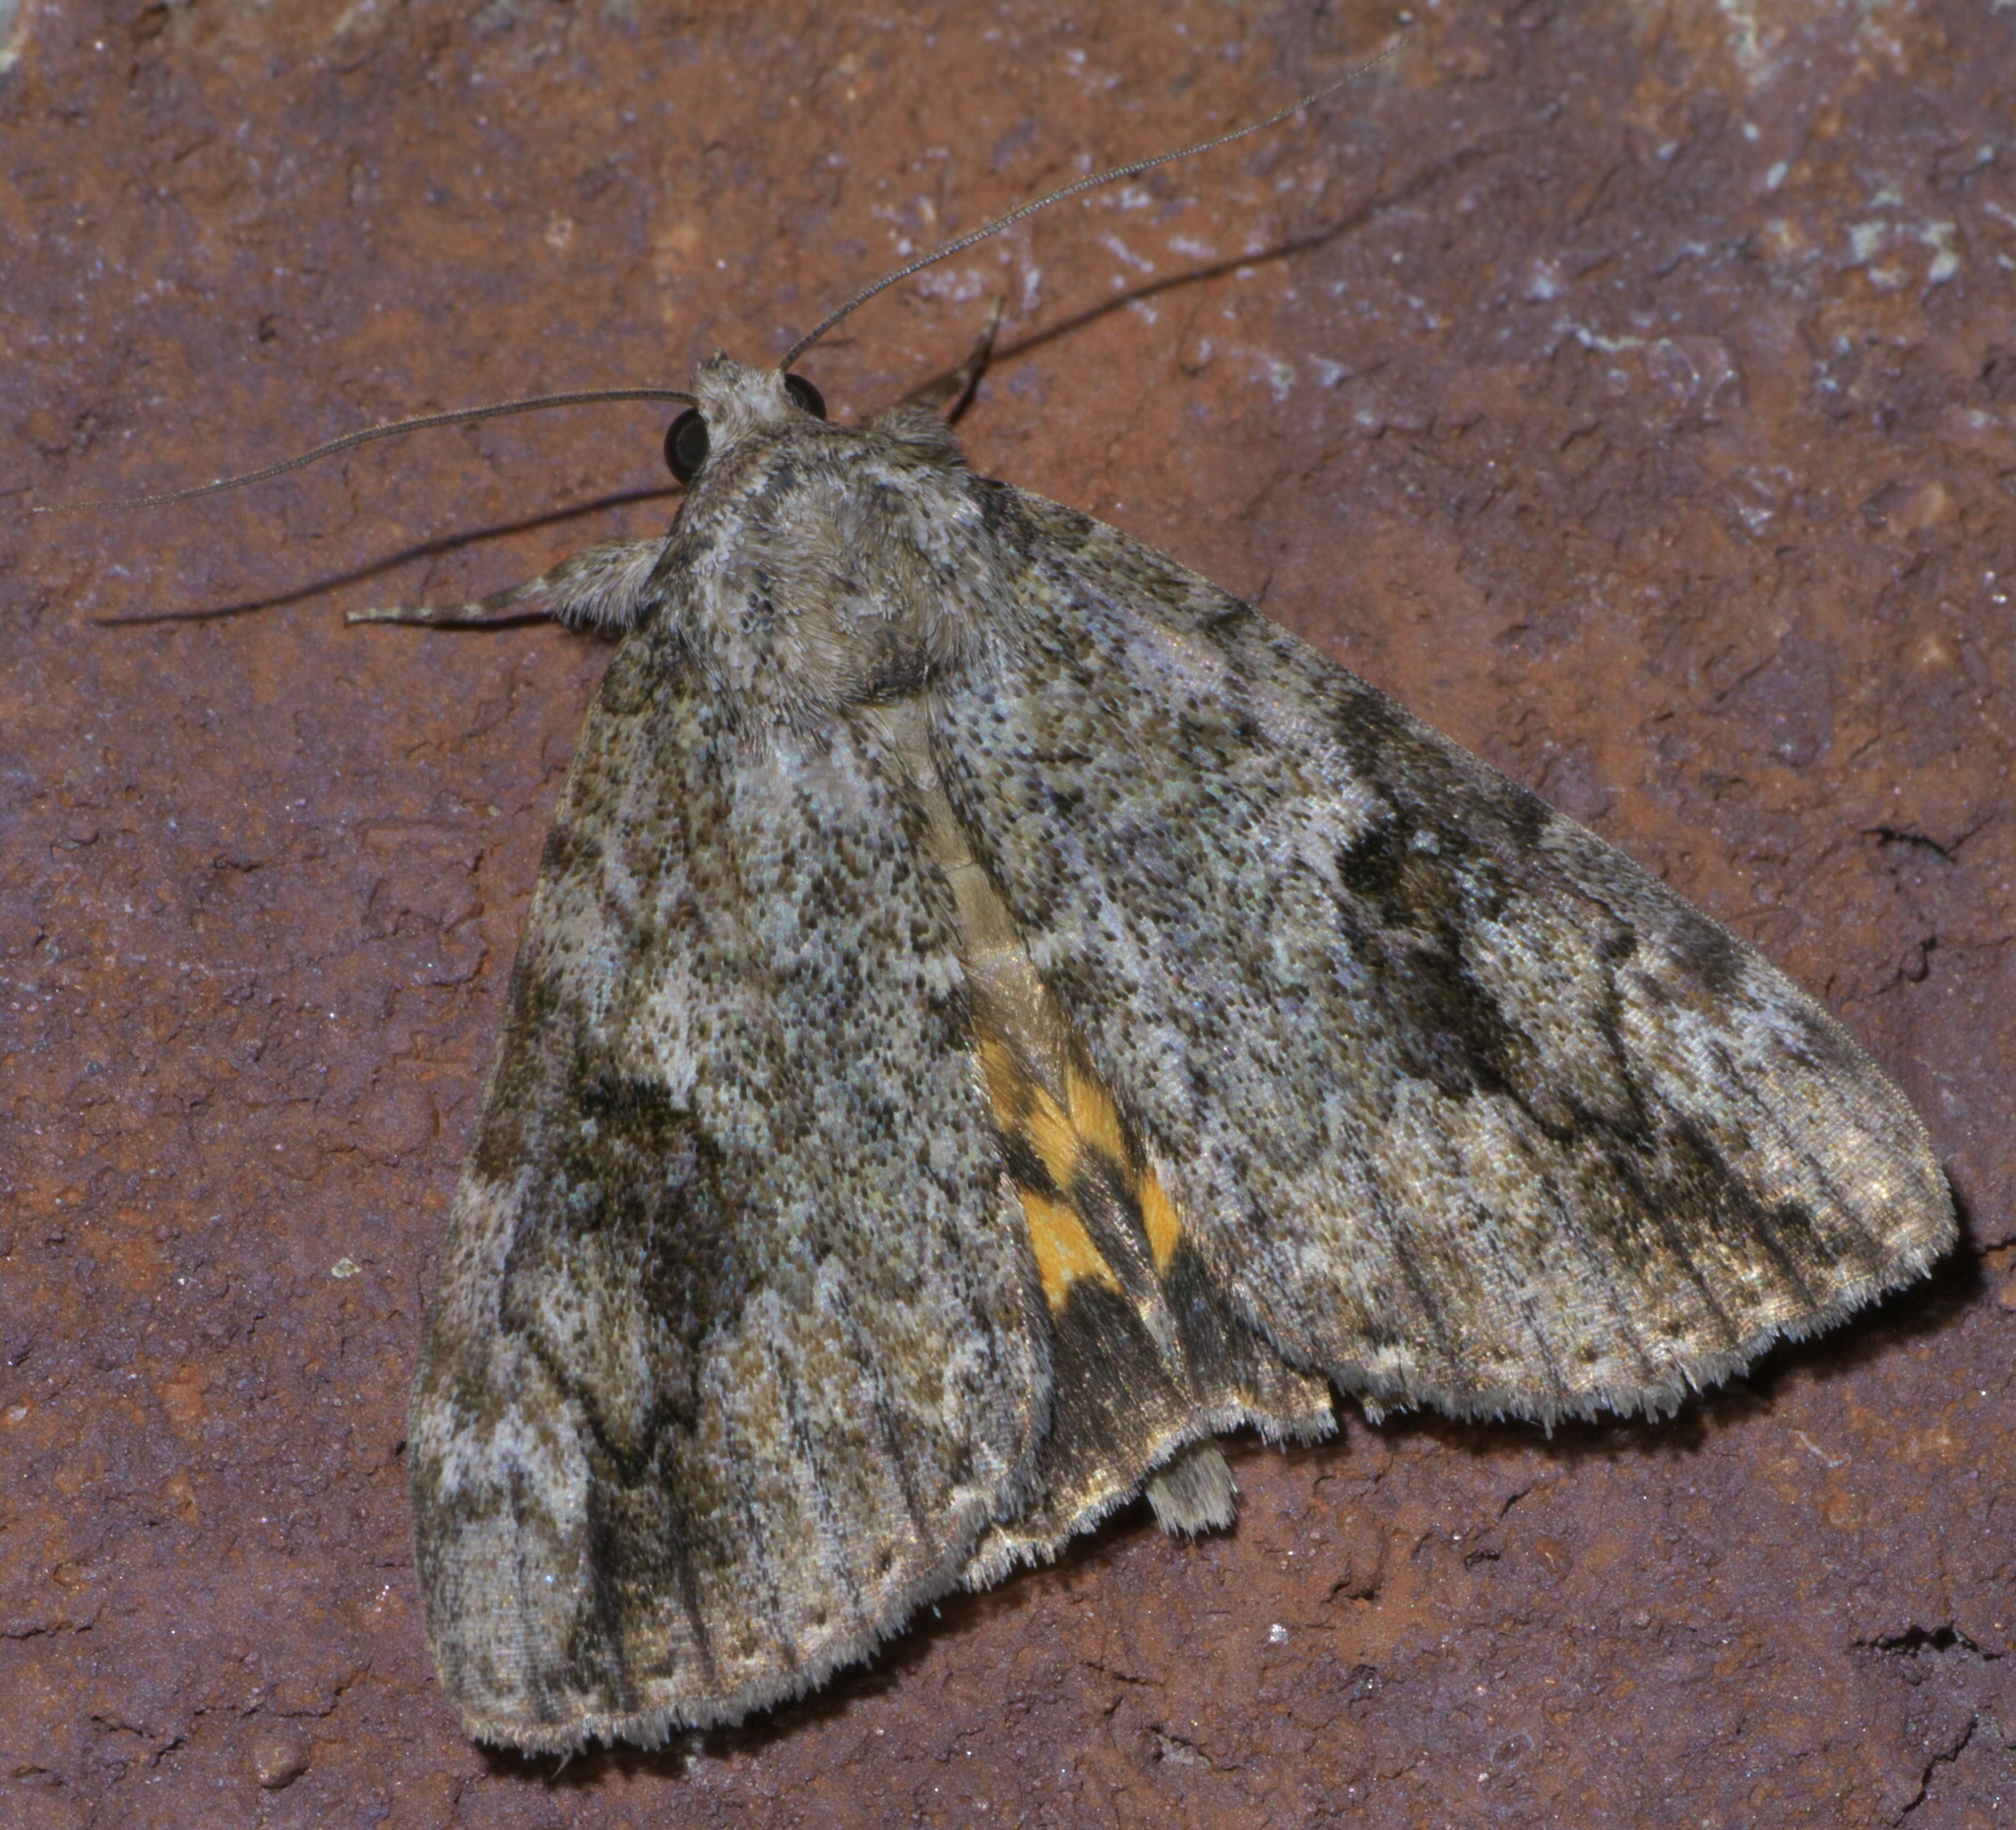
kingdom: Animalia
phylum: Arthropoda
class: Insecta
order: Lepidoptera
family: Erebidae
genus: Catocala
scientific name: Catocala micronympha
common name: Little nymph underwing
